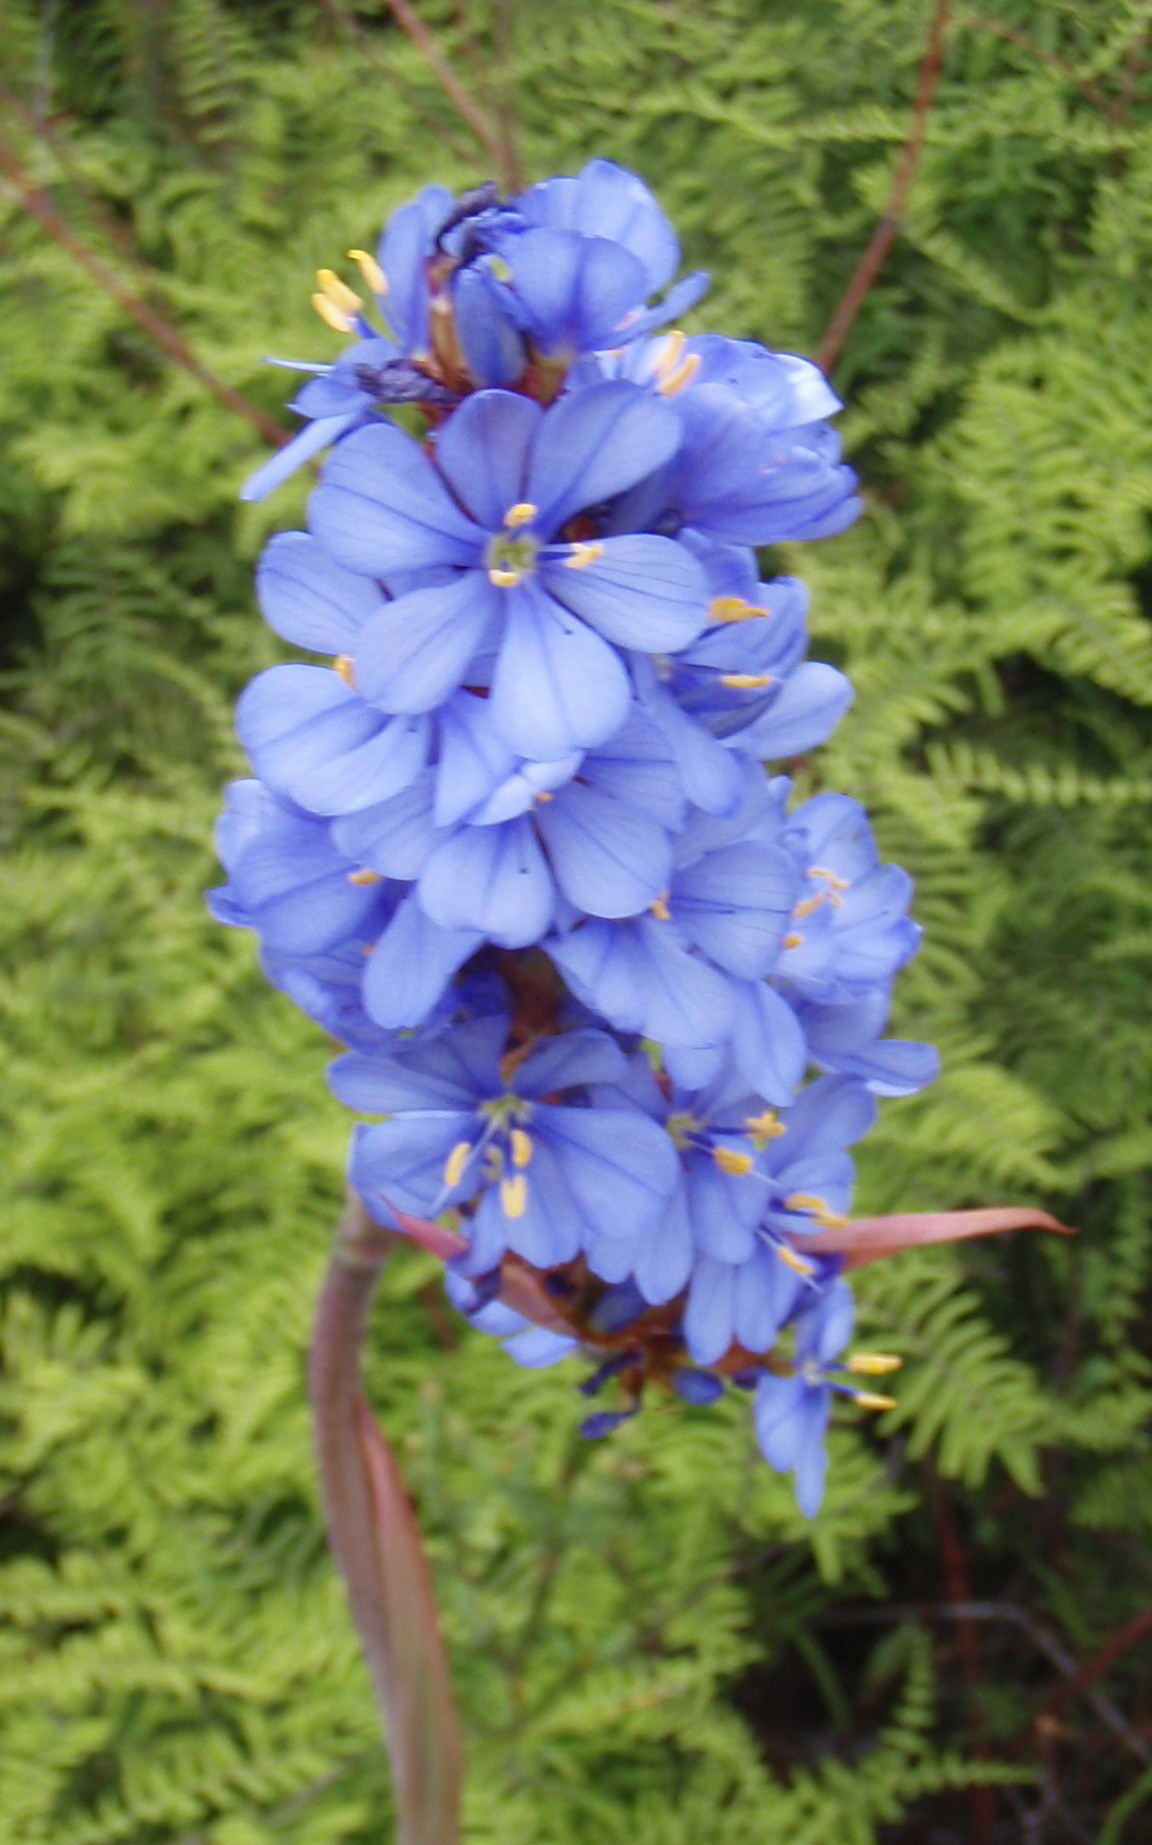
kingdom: Plantae
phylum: Tracheophyta
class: Liliopsida
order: Asparagales
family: Iridaceae
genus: Aristea
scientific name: Aristea bakeri
